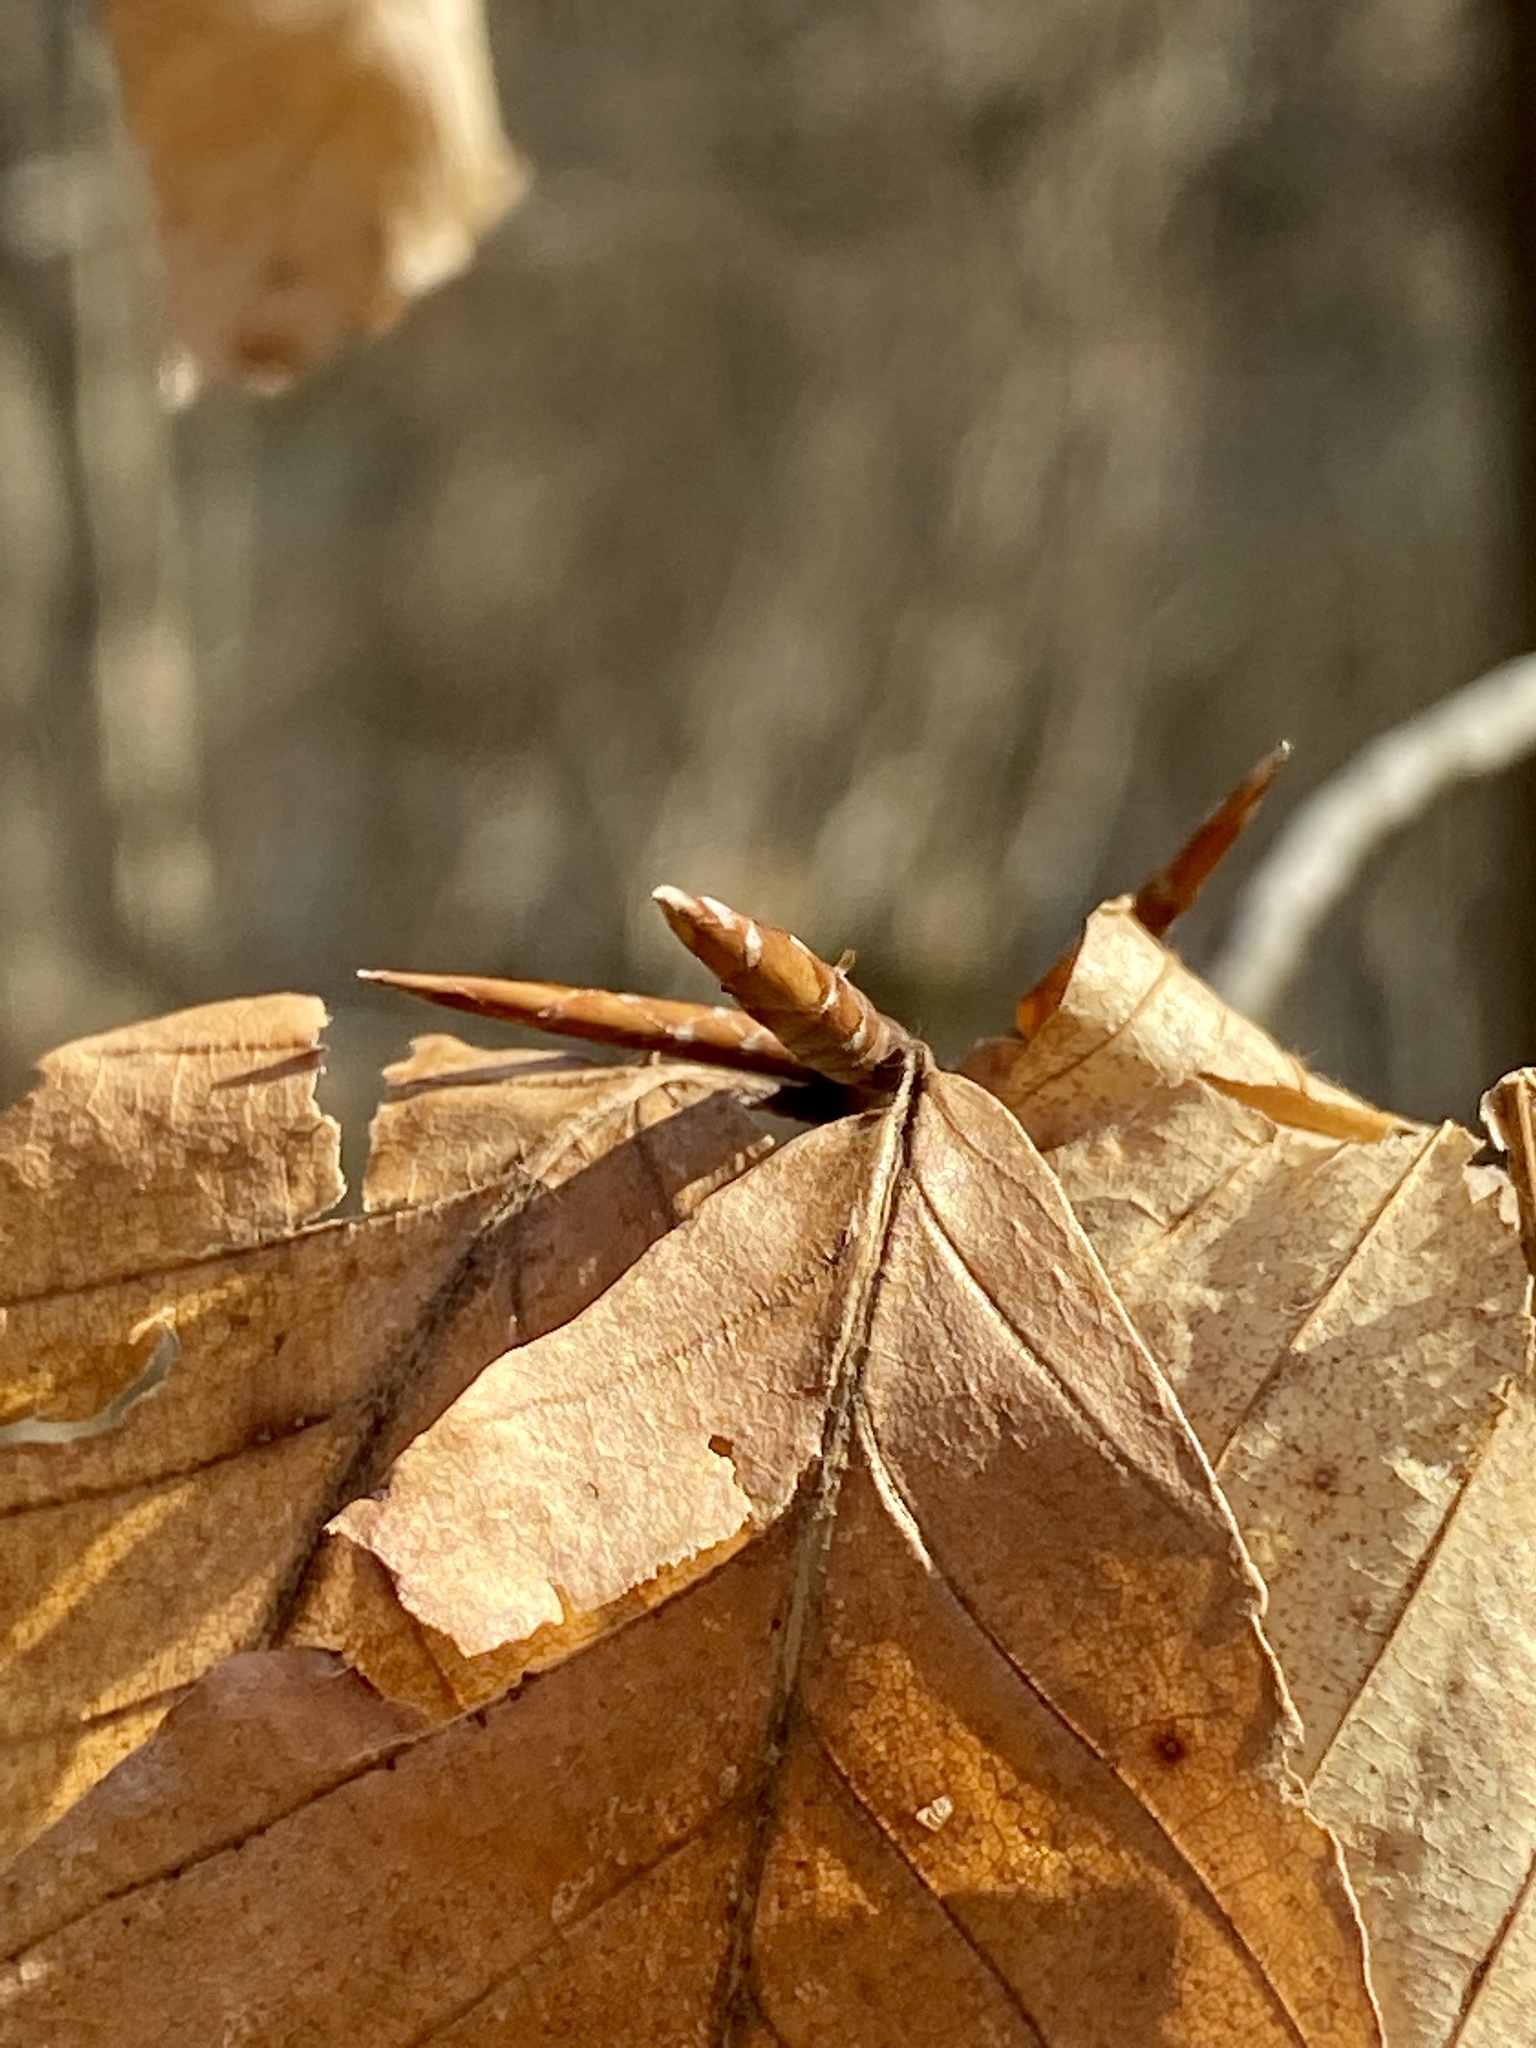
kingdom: Plantae
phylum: Tracheophyta
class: Magnoliopsida
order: Fagales
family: Fagaceae
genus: Fagus
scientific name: Fagus grandifolia
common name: American beech
